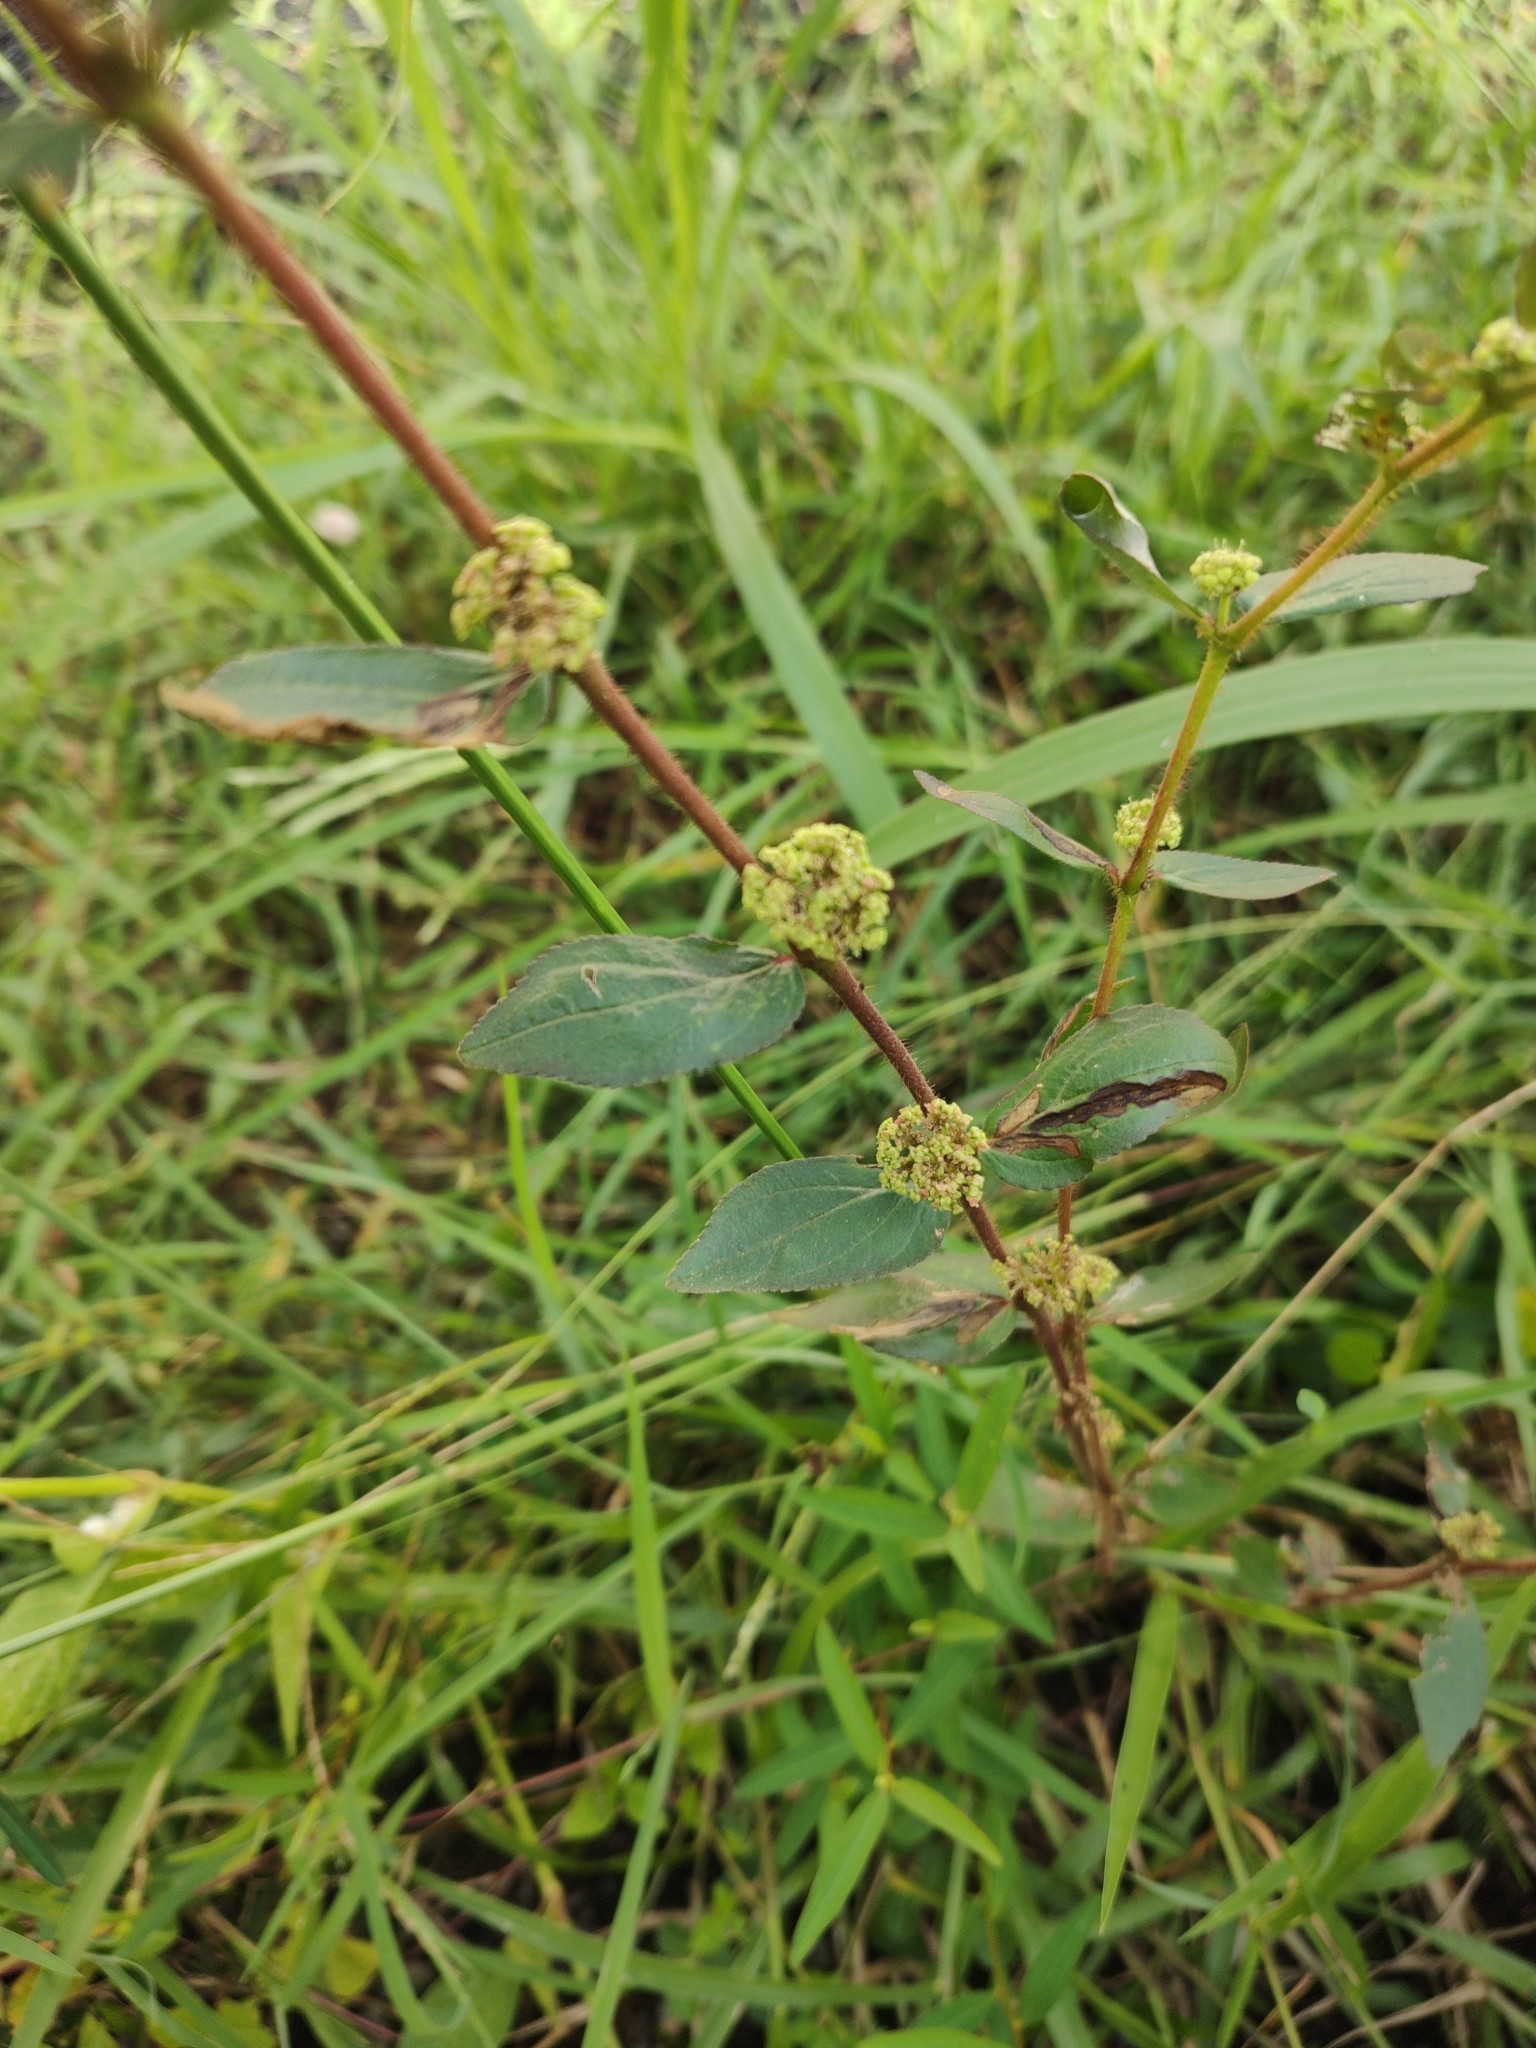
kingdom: Plantae
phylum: Tracheophyta
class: Magnoliopsida
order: Malpighiales
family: Euphorbiaceae
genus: Euphorbia
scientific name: Euphorbia hirta
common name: Pillpod sandmat
